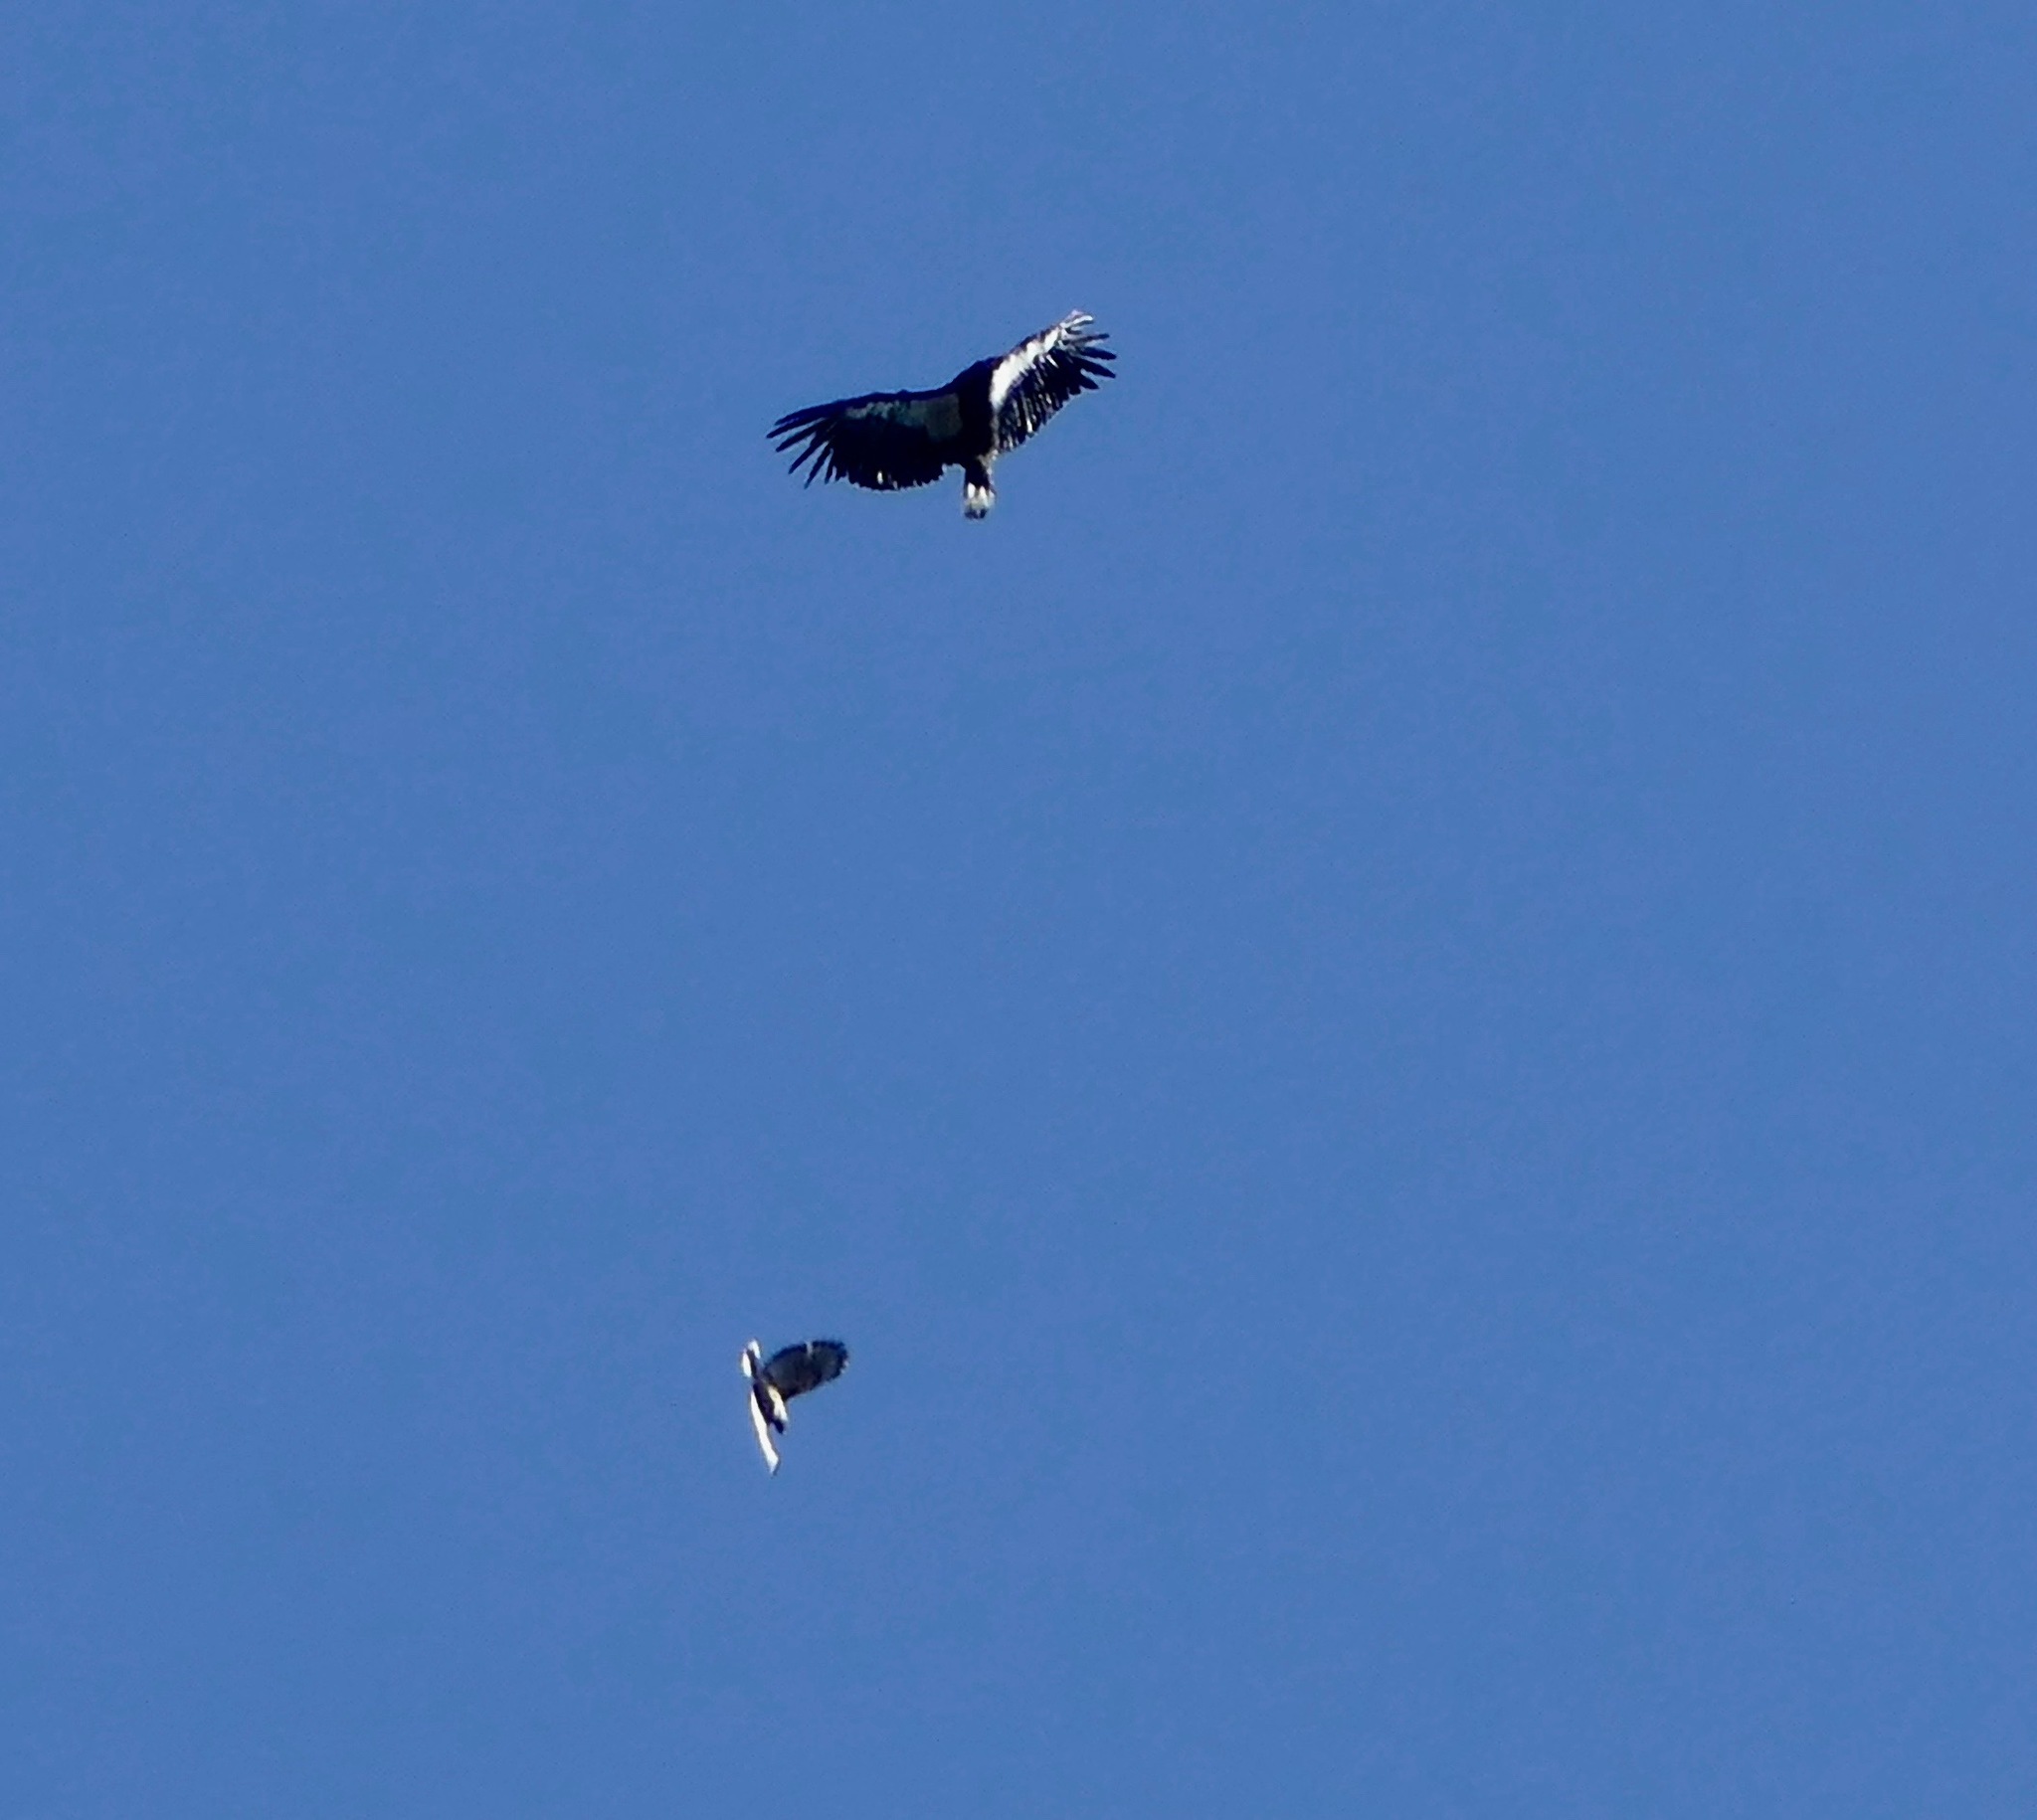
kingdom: Animalia
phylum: Chordata
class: Aves
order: Accipitriformes
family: Cathartidae
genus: Gymnogyps
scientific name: Gymnogyps californianus
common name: California condor
